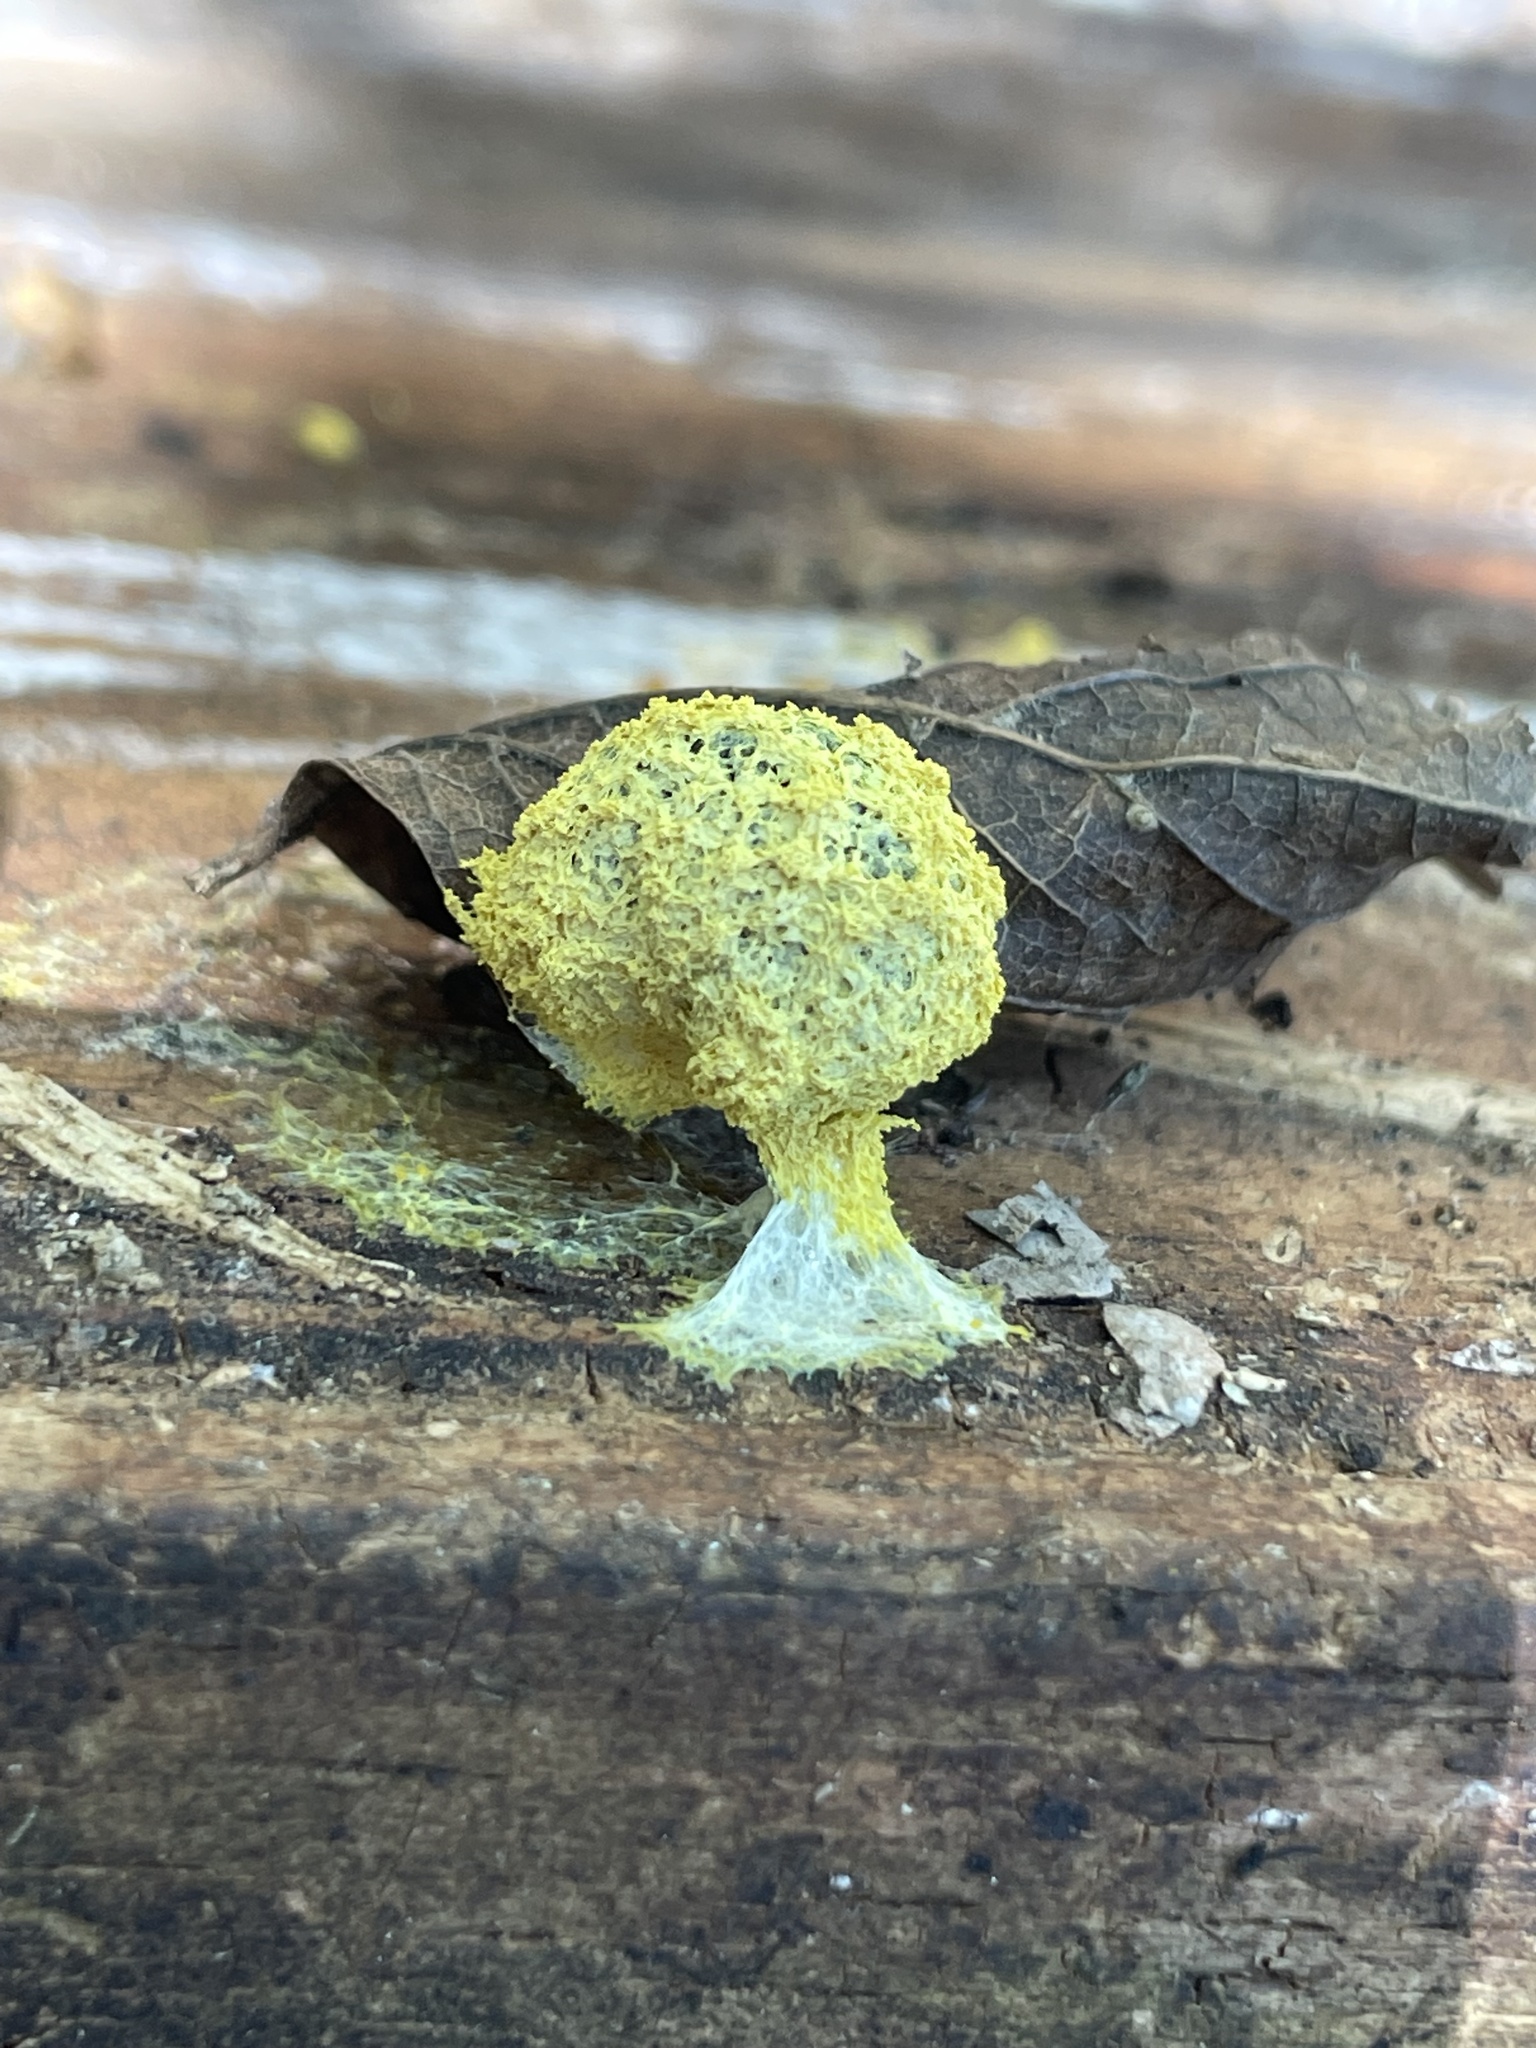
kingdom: Protozoa
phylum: Mycetozoa
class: Myxomycetes
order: Physarales
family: Physaraceae
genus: Fuligo
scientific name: Fuligo septica
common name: Dog vomit slime mold
